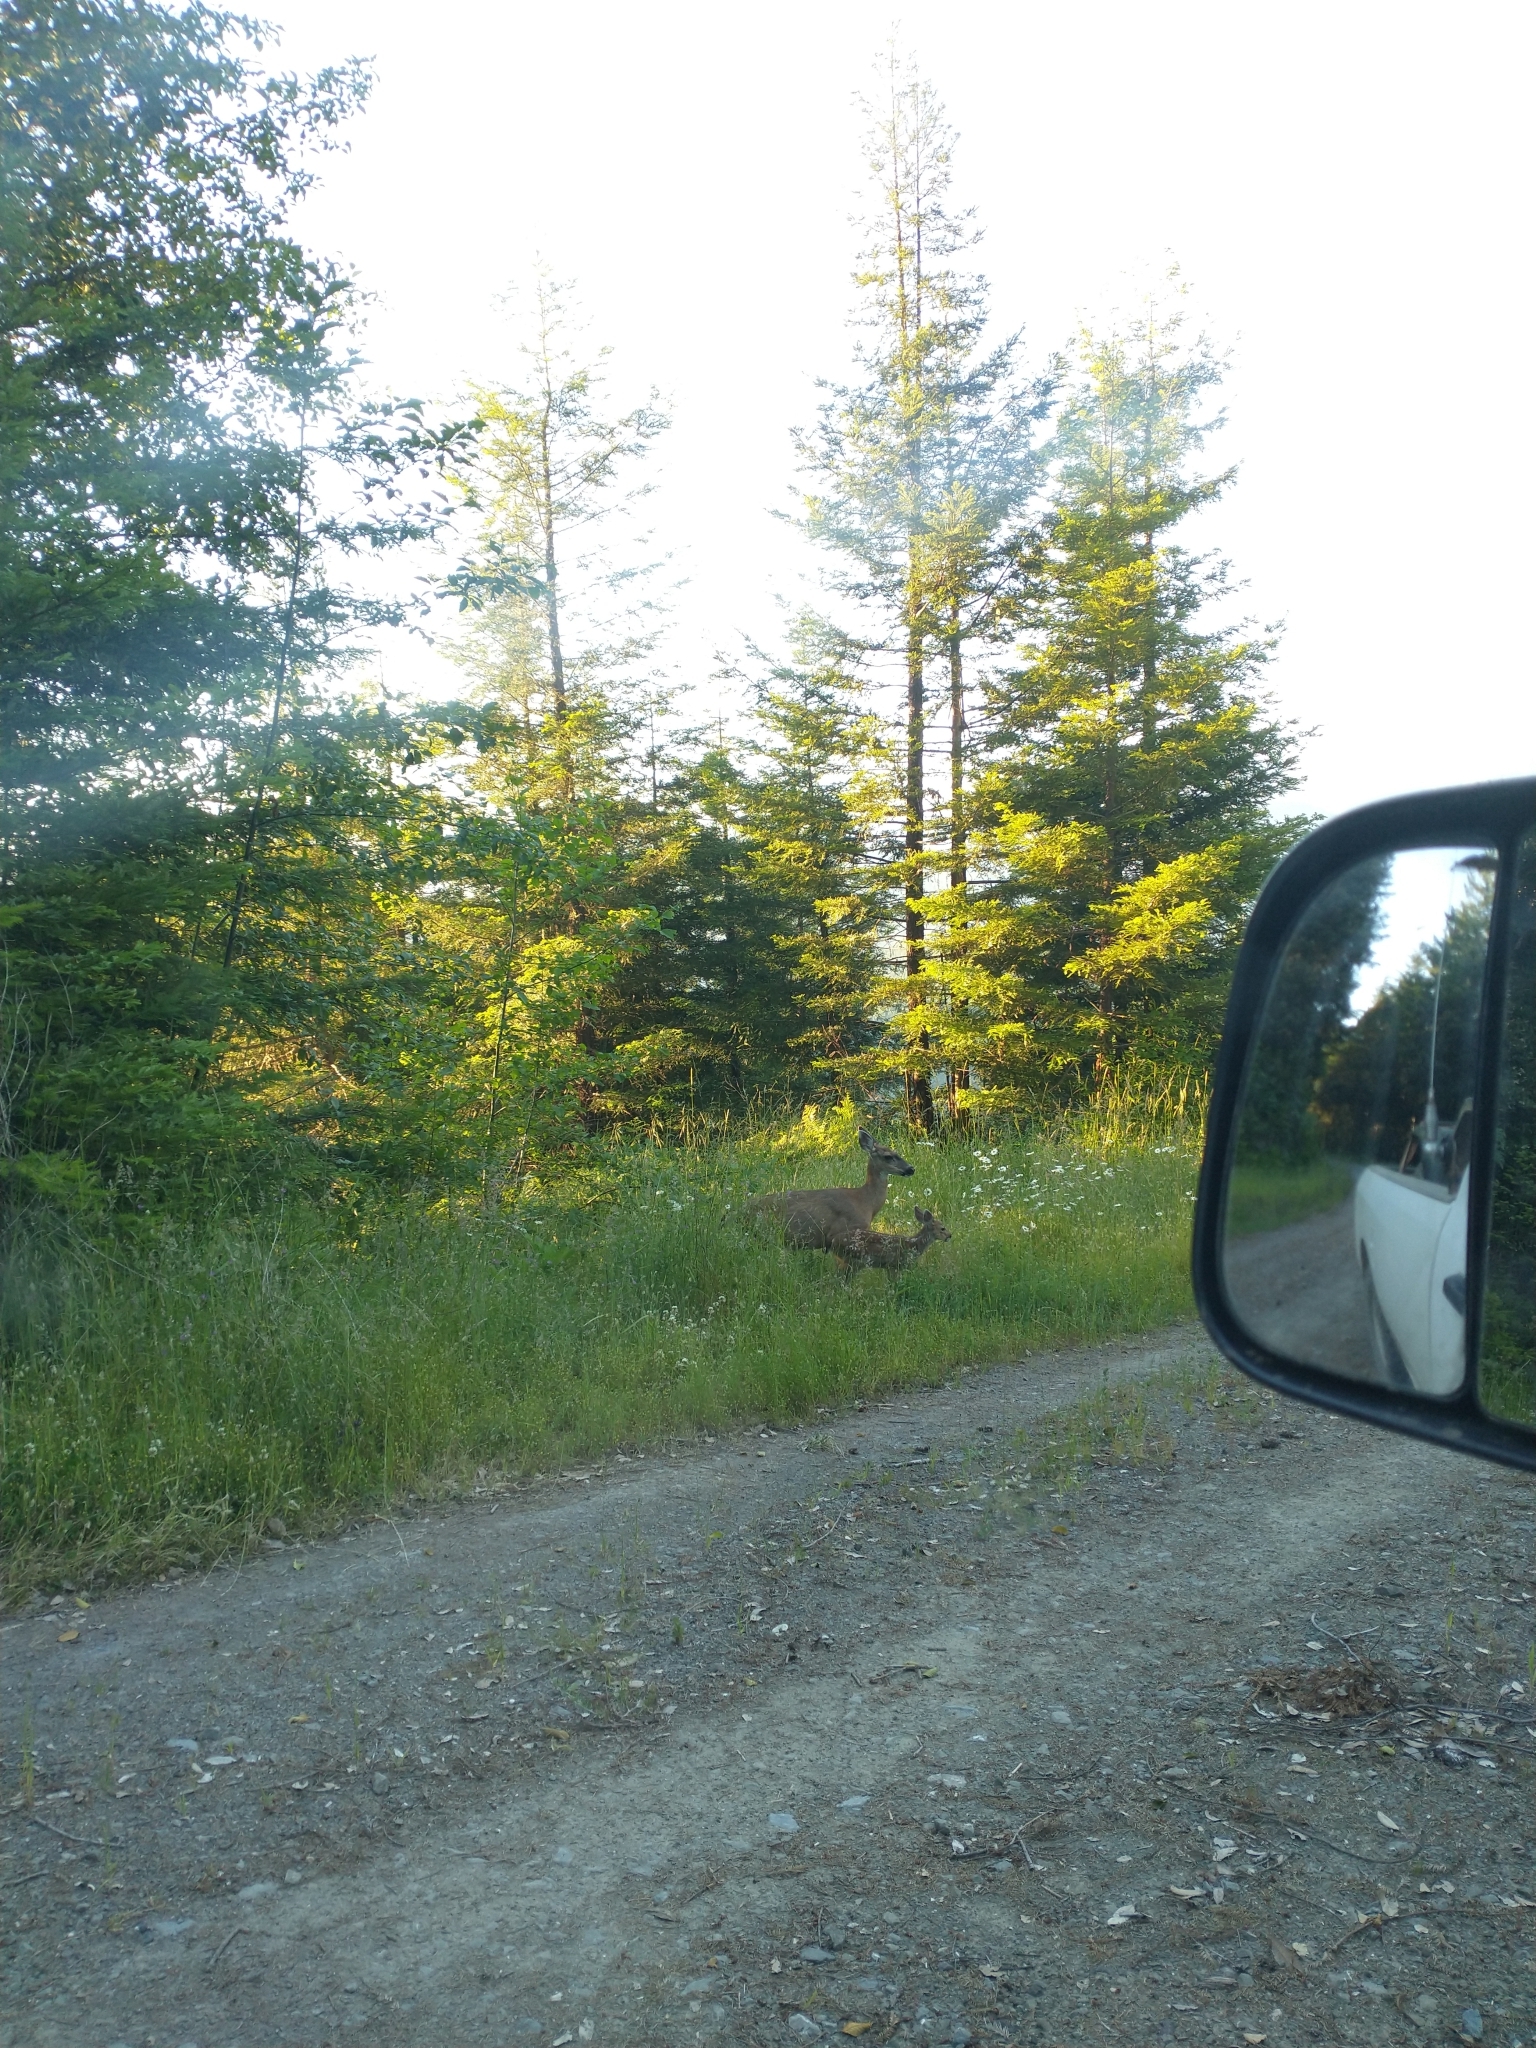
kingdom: Animalia
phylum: Chordata
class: Mammalia
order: Artiodactyla
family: Cervidae
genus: Odocoileus
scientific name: Odocoileus hemionus
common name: Mule deer
